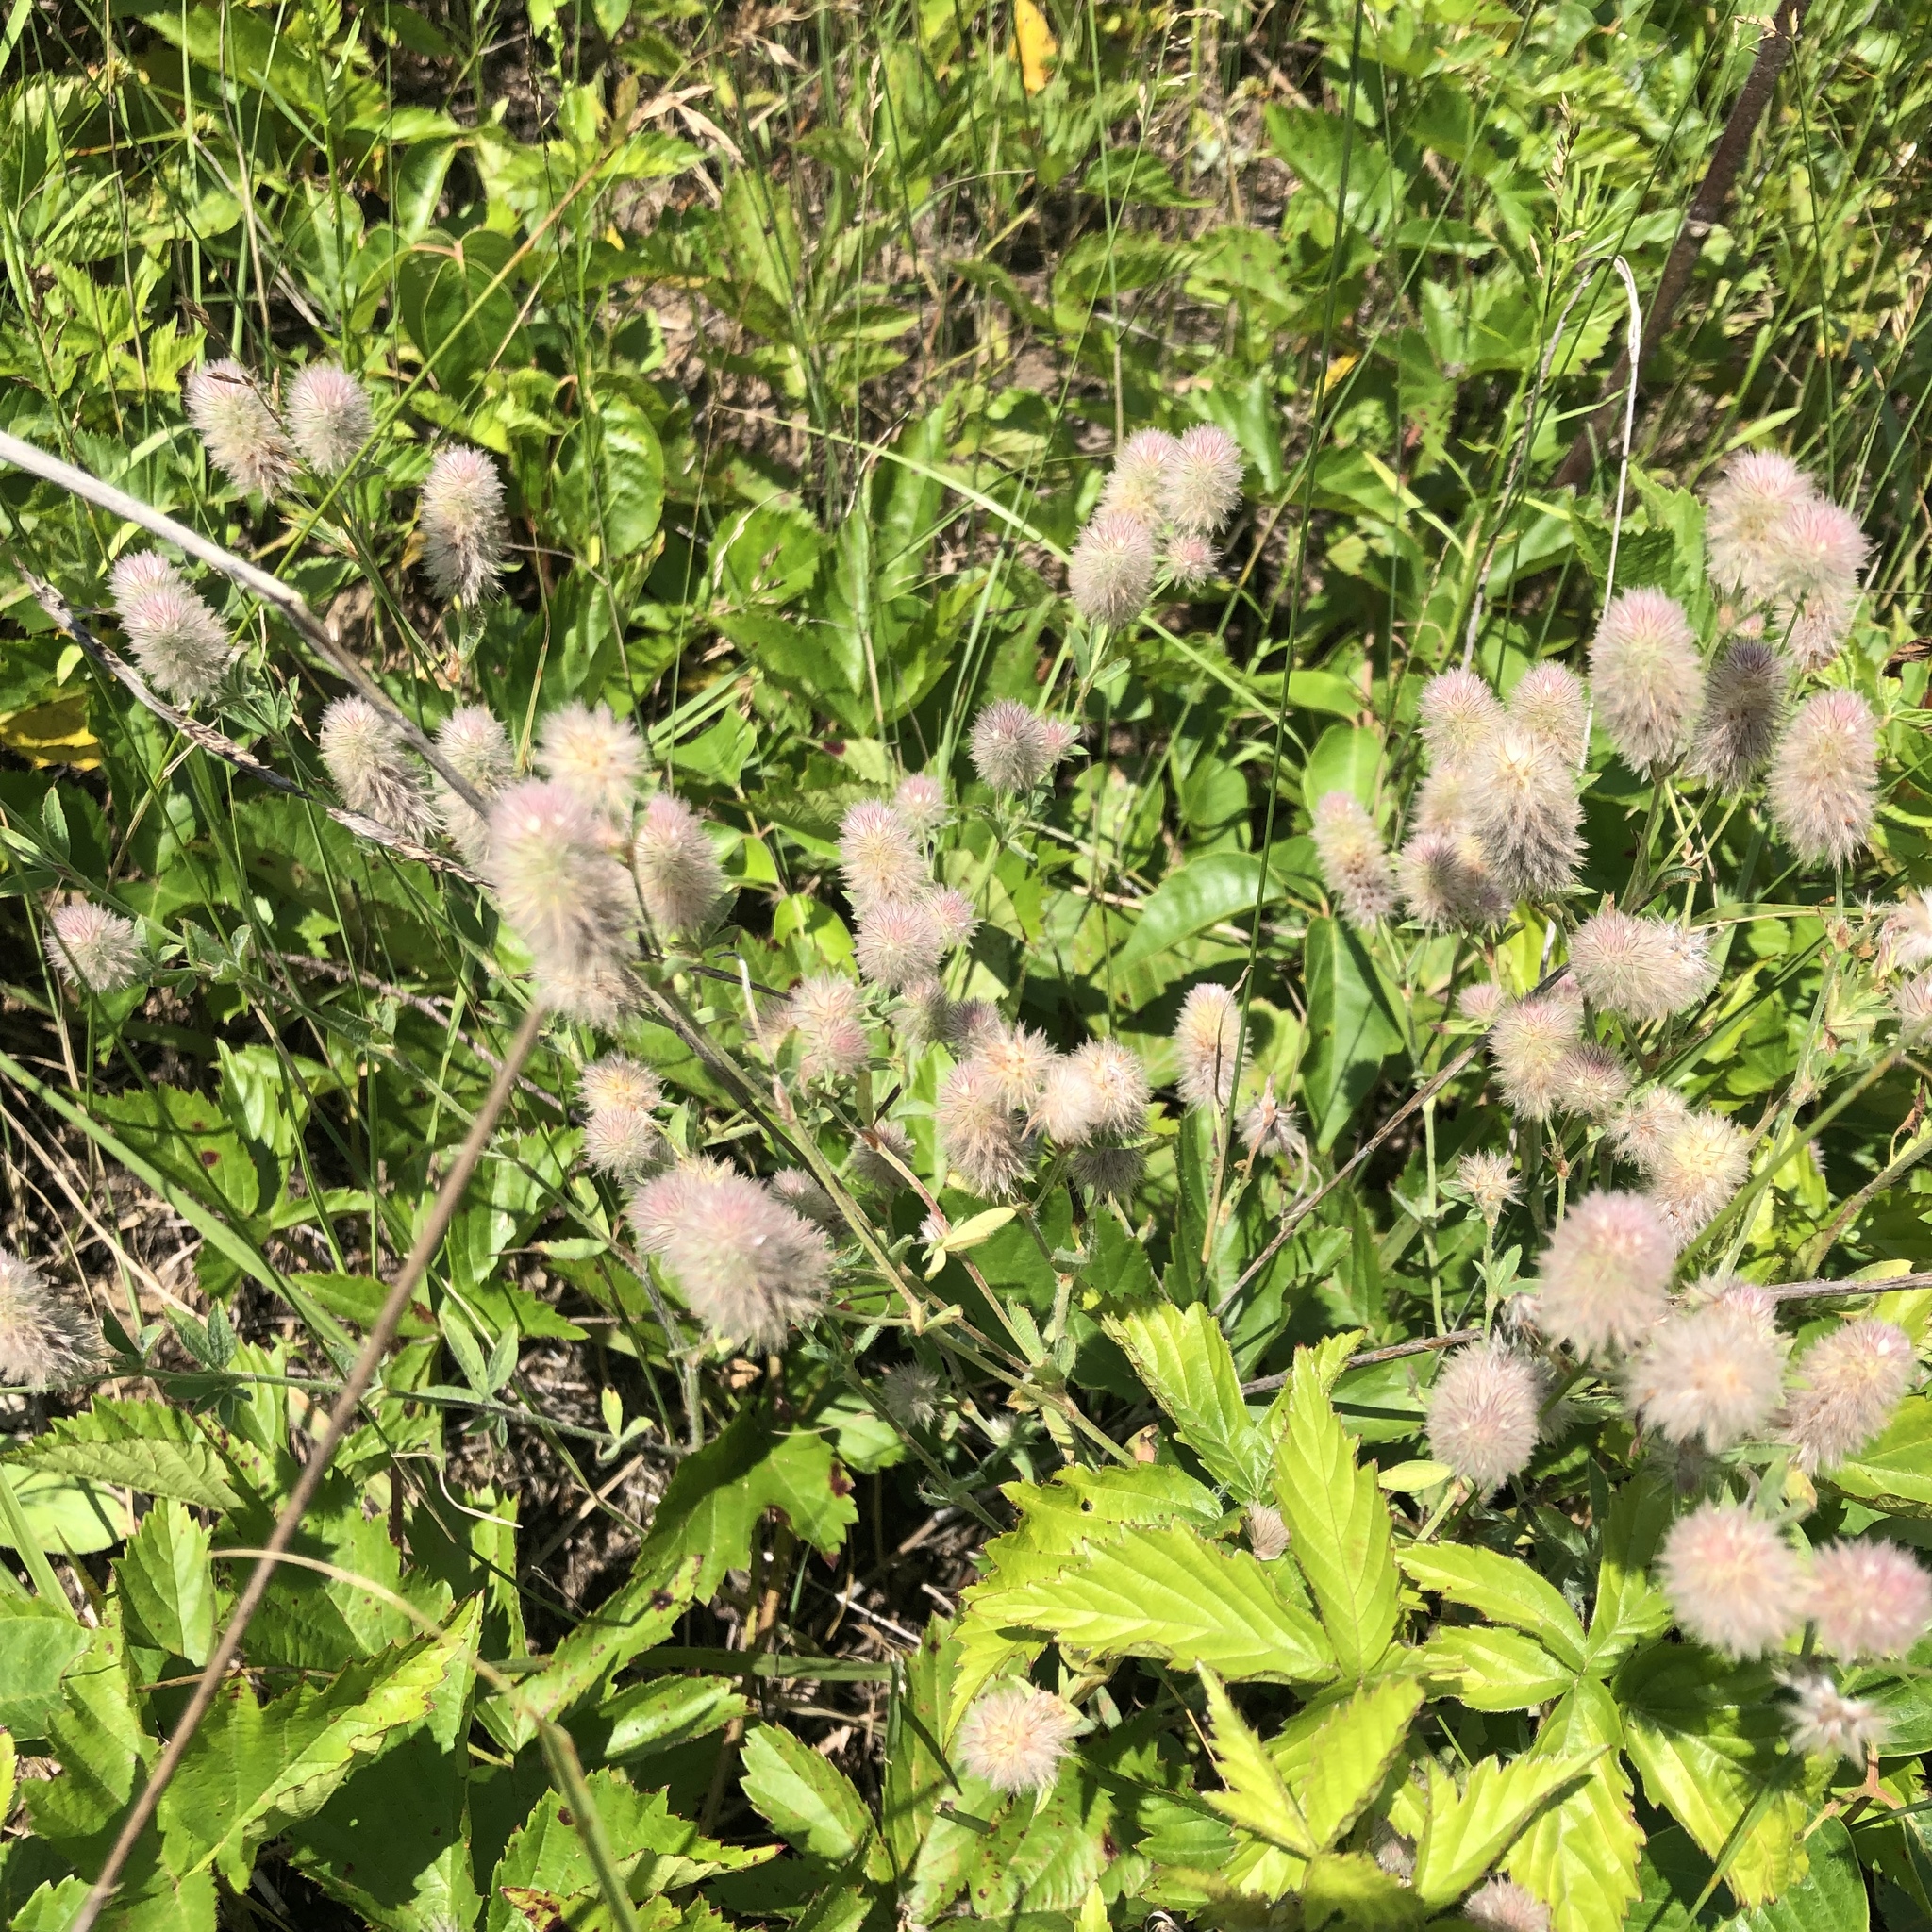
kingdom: Plantae
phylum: Tracheophyta
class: Magnoliopsida
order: Fabales
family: Fabaceae
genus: Trifolium
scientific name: Trifolium arvense
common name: Hare's-foot clover
